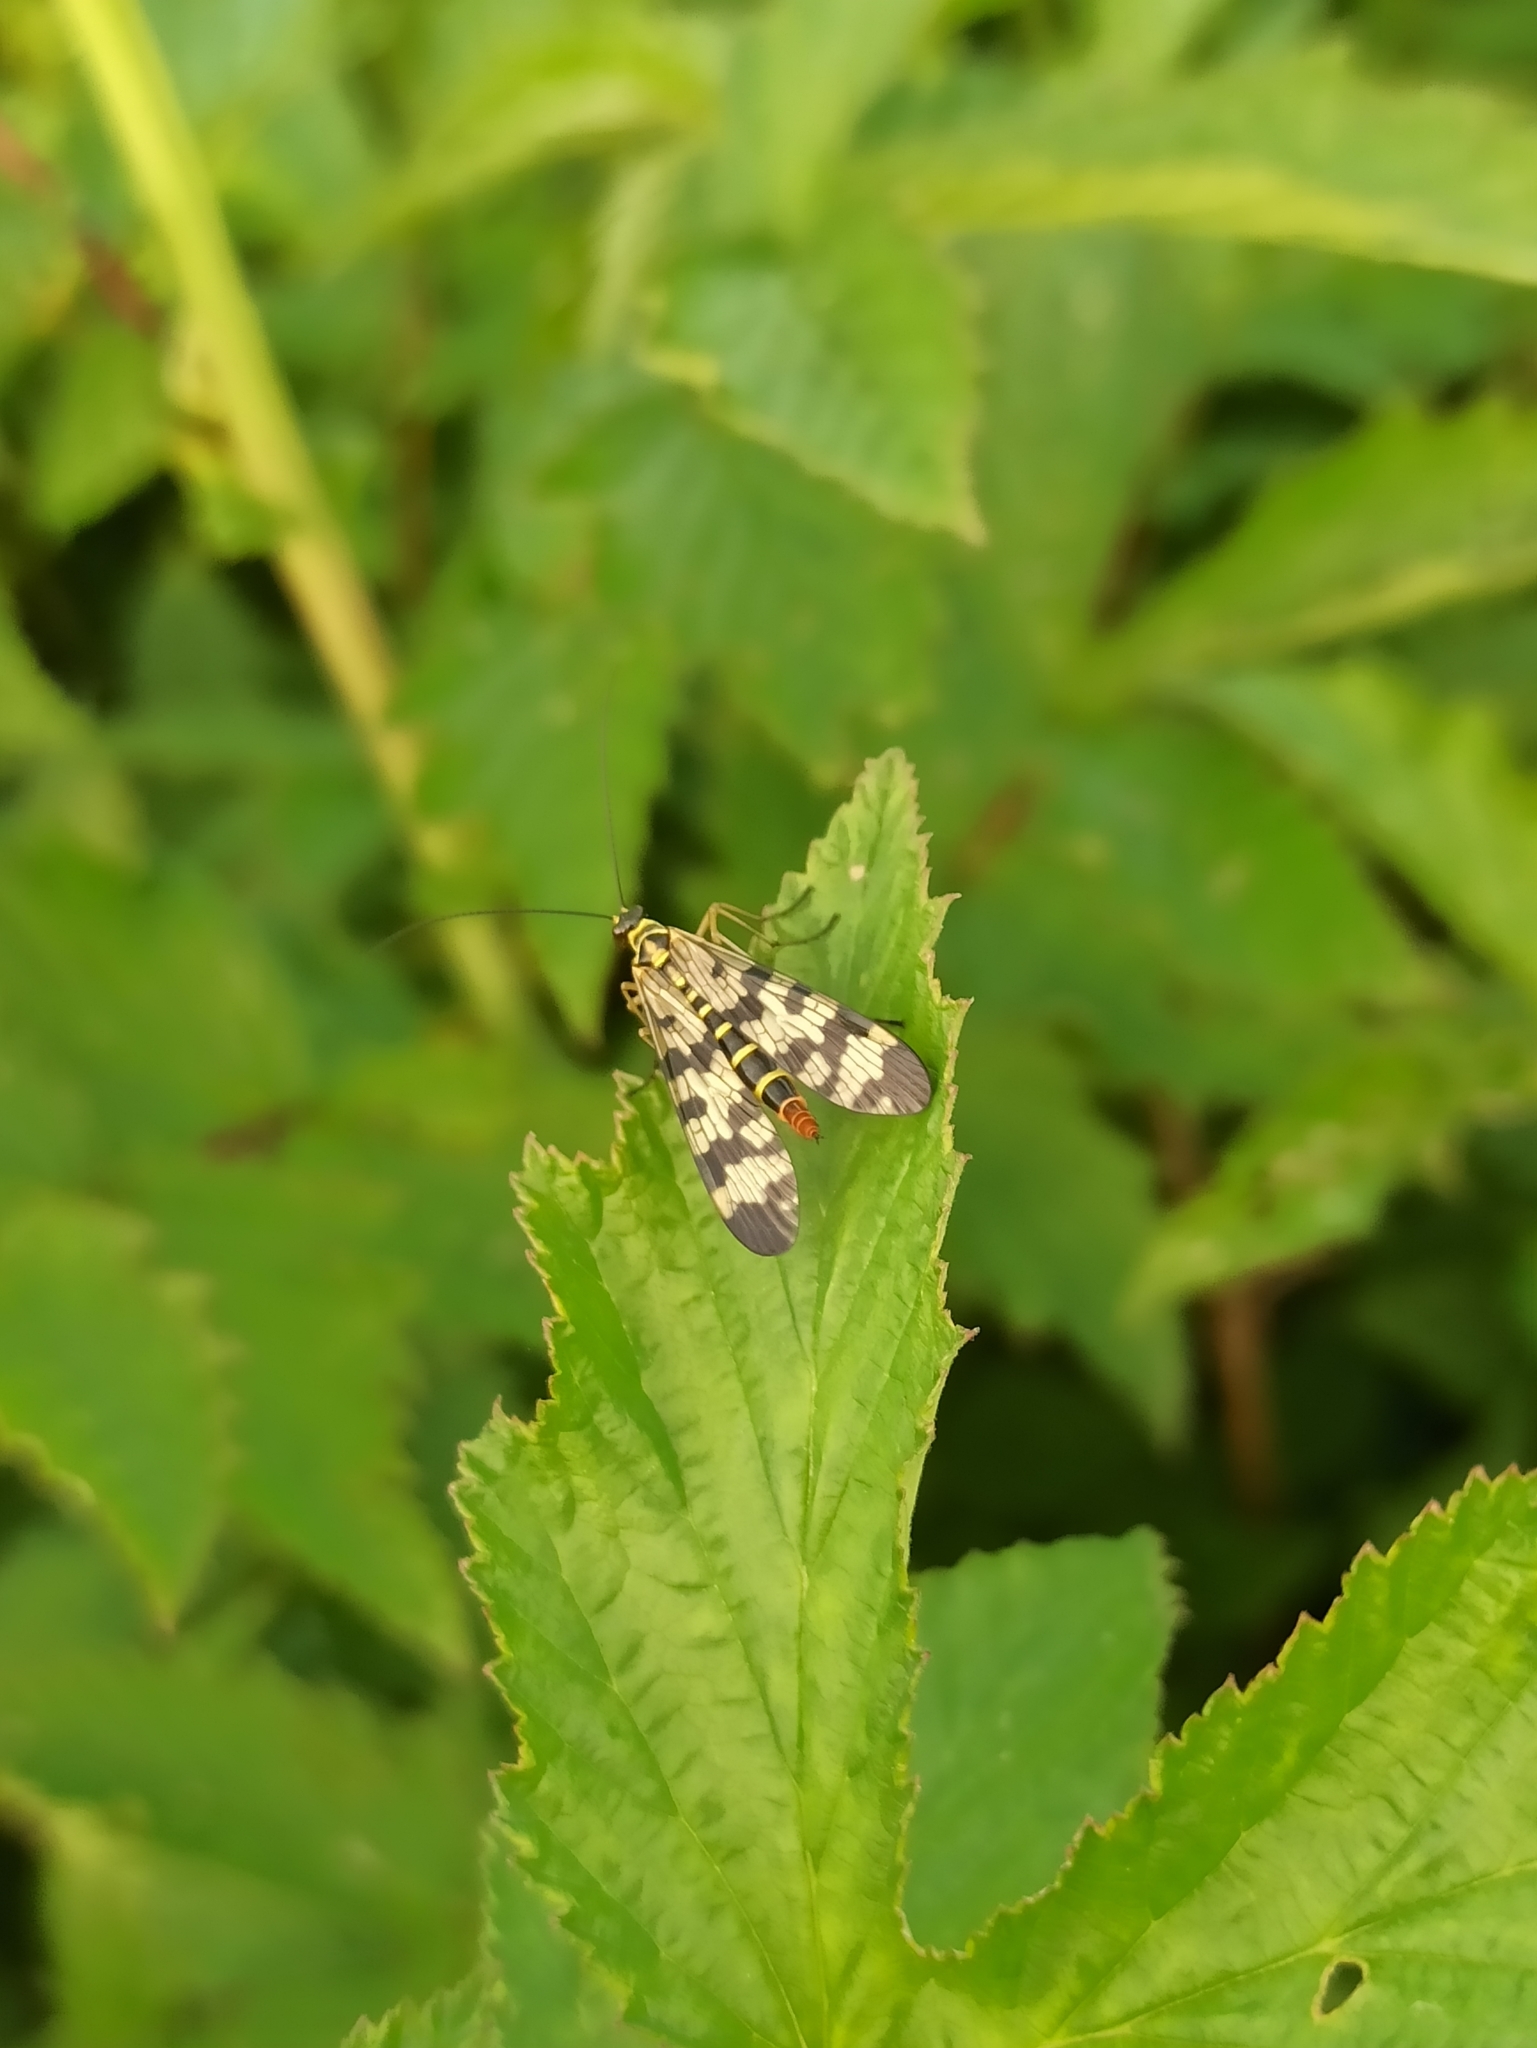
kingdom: Animalia
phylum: Arthropoda
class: Insecta
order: Mecoptera
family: Panorpidae
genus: Panorpa
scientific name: Panorpa communis
